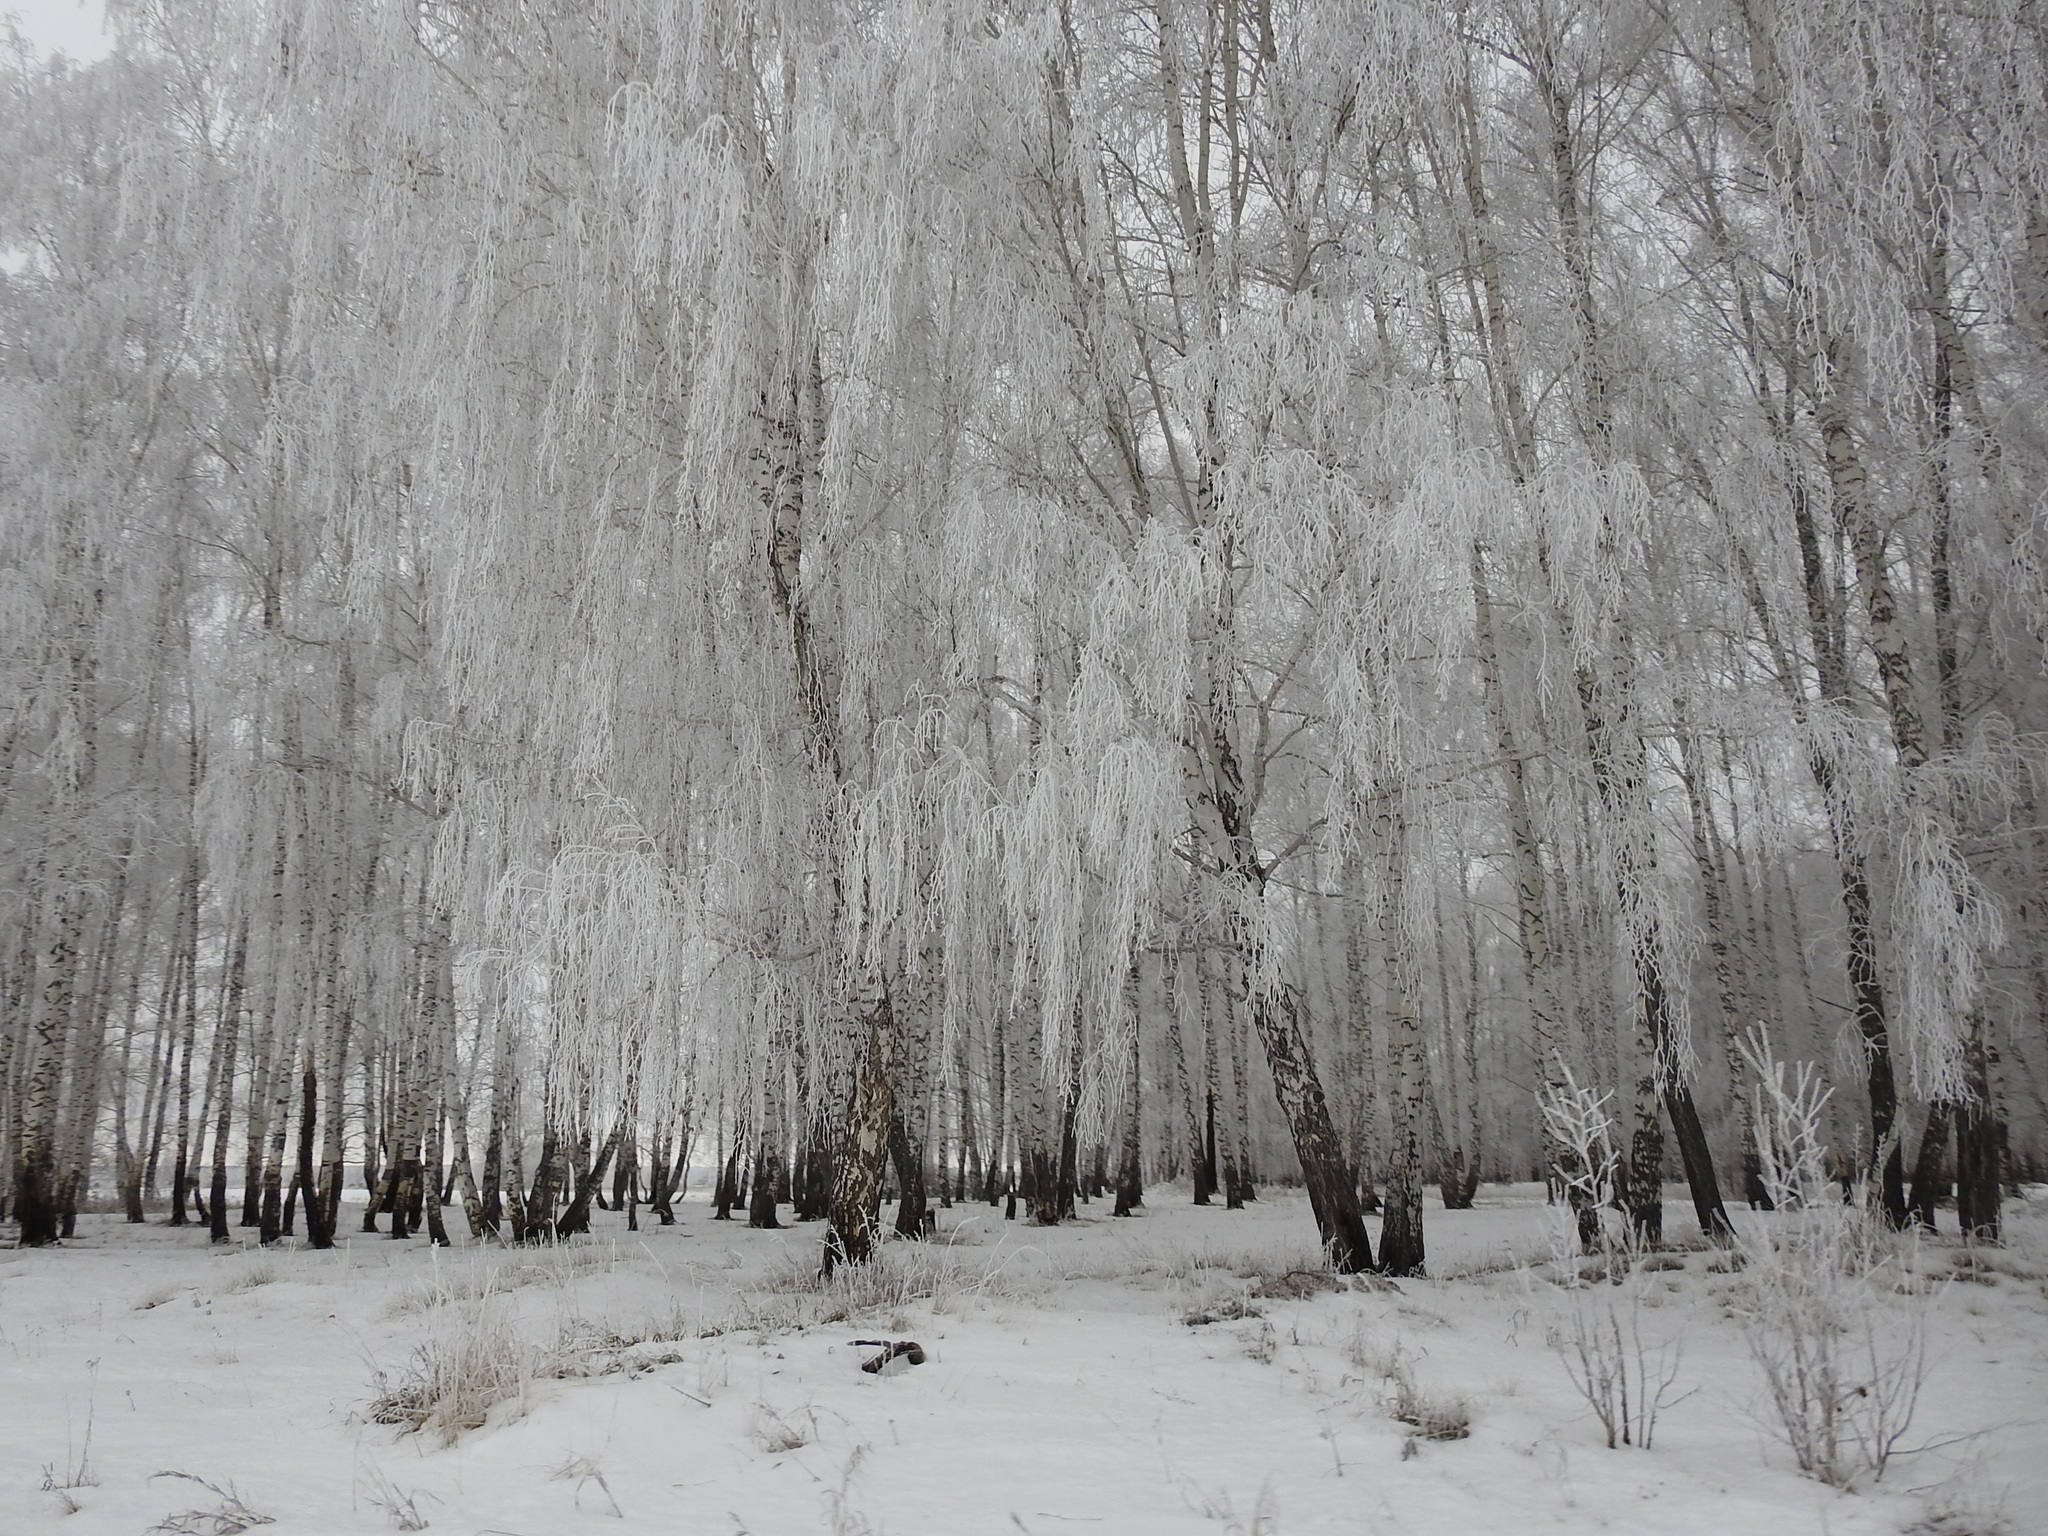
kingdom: Plantae
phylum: Tracheophyta
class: Magnoliopsida
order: Fagales
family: Betulaceae
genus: Betula
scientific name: Betula pendula
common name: Silver birch
